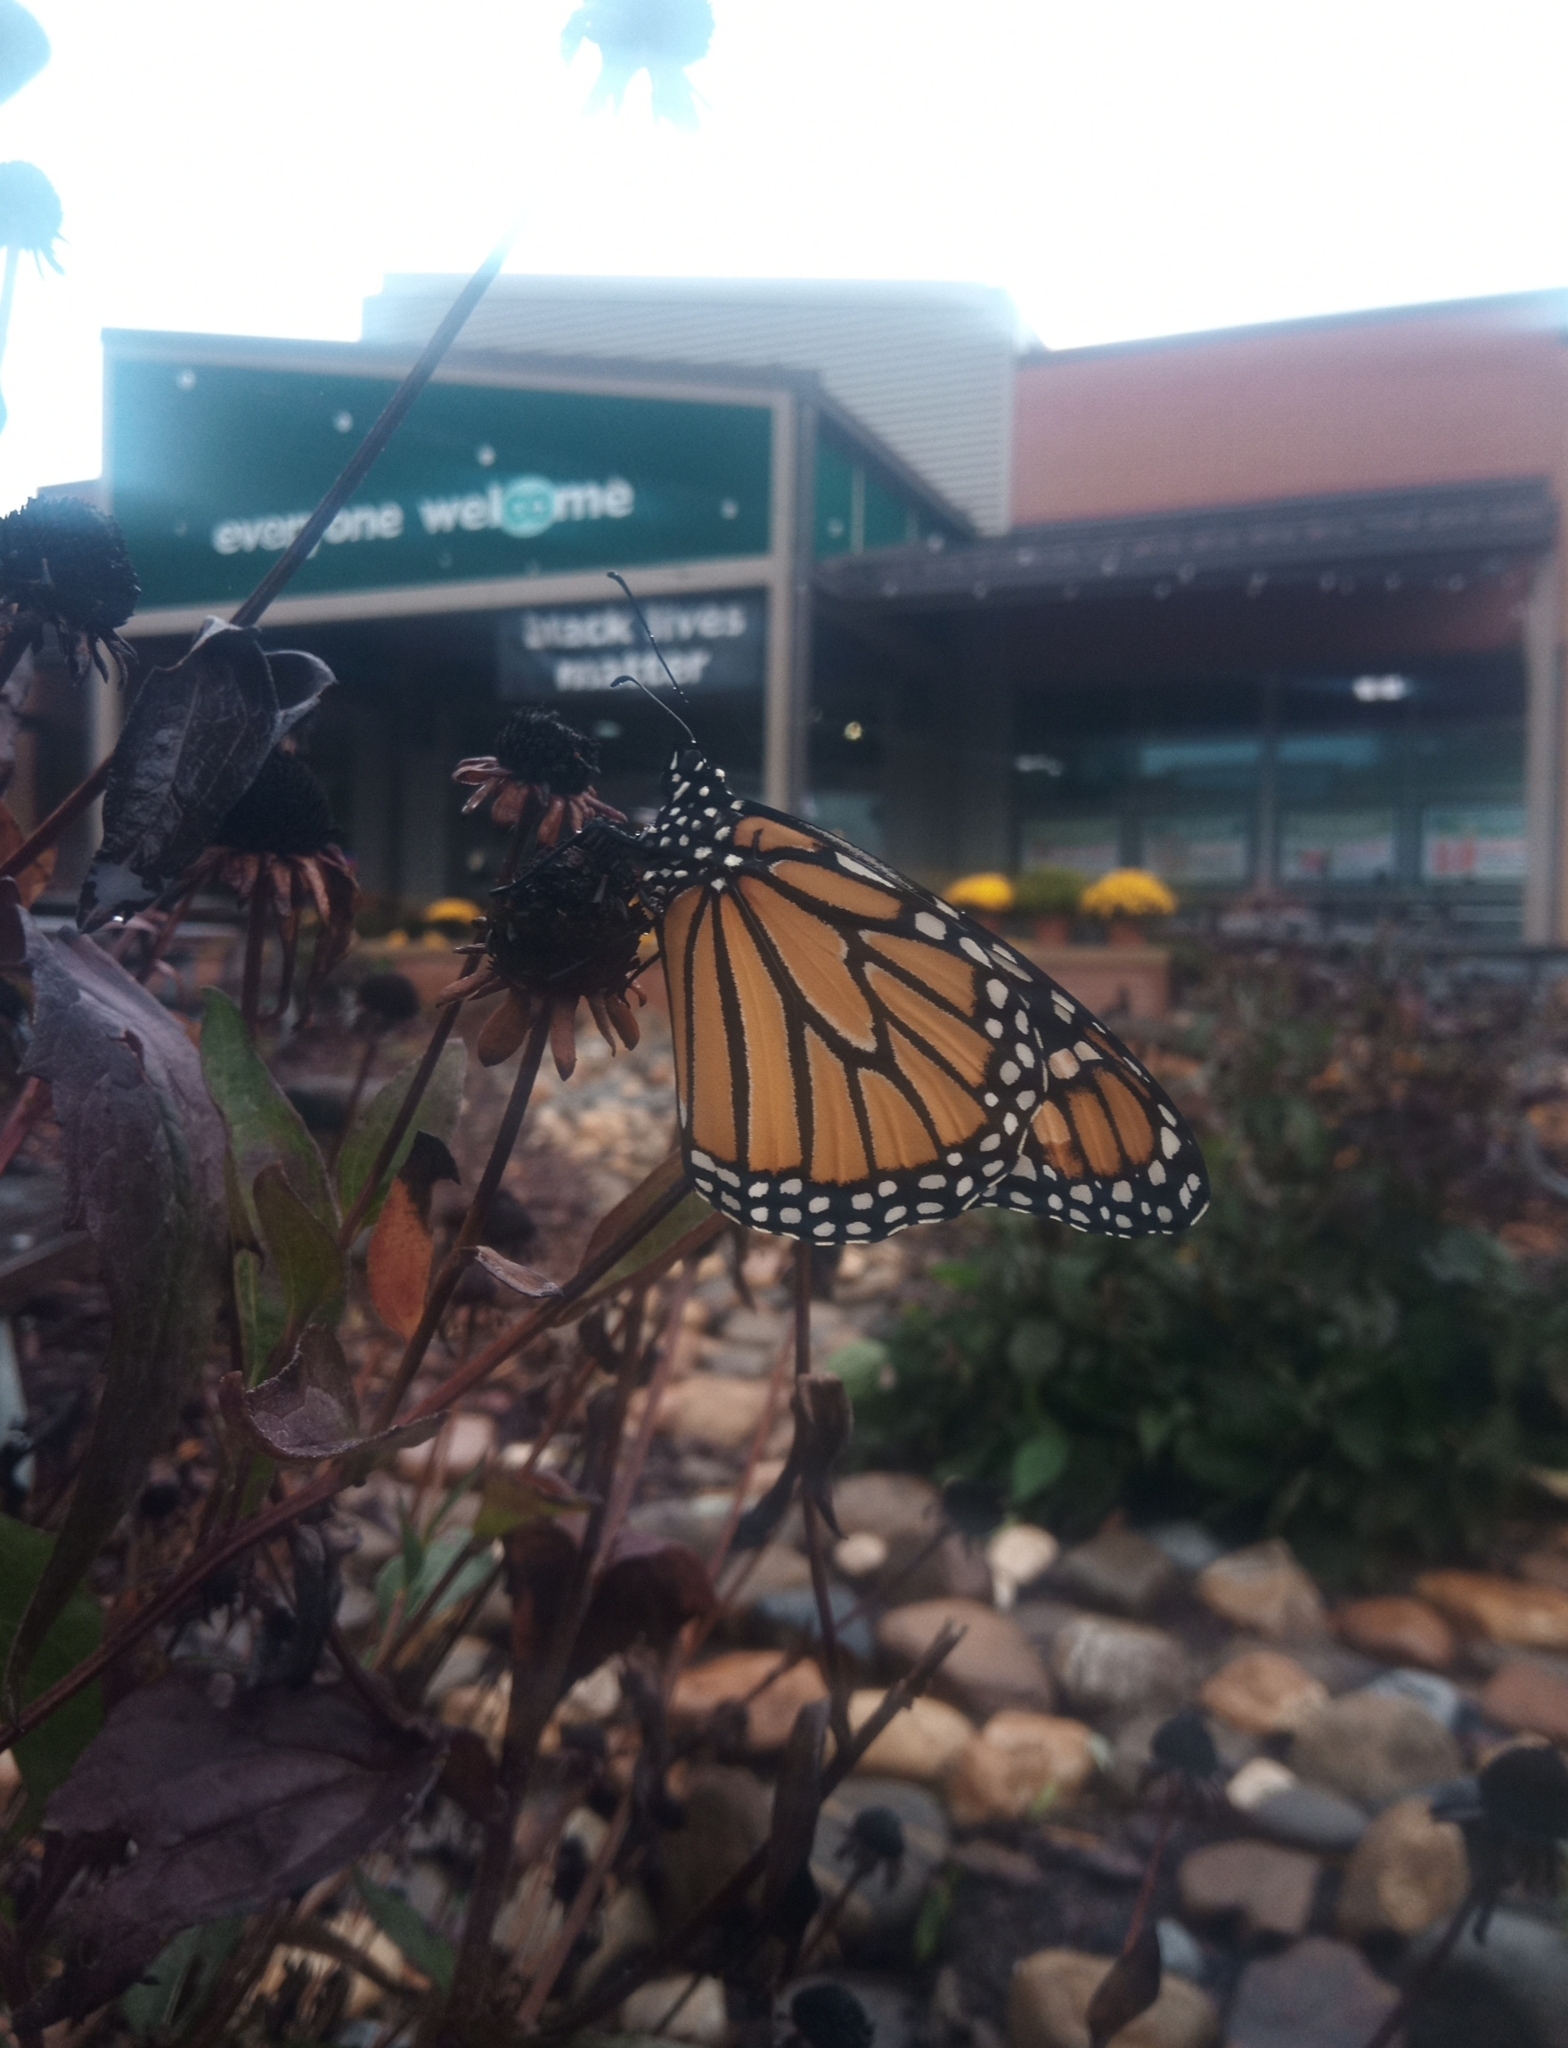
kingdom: Animalia
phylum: Arthropoda
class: Insecta
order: Lepidoptera
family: Nymphalidae
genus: Danaus
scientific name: Danaus plexippus
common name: Monarch
